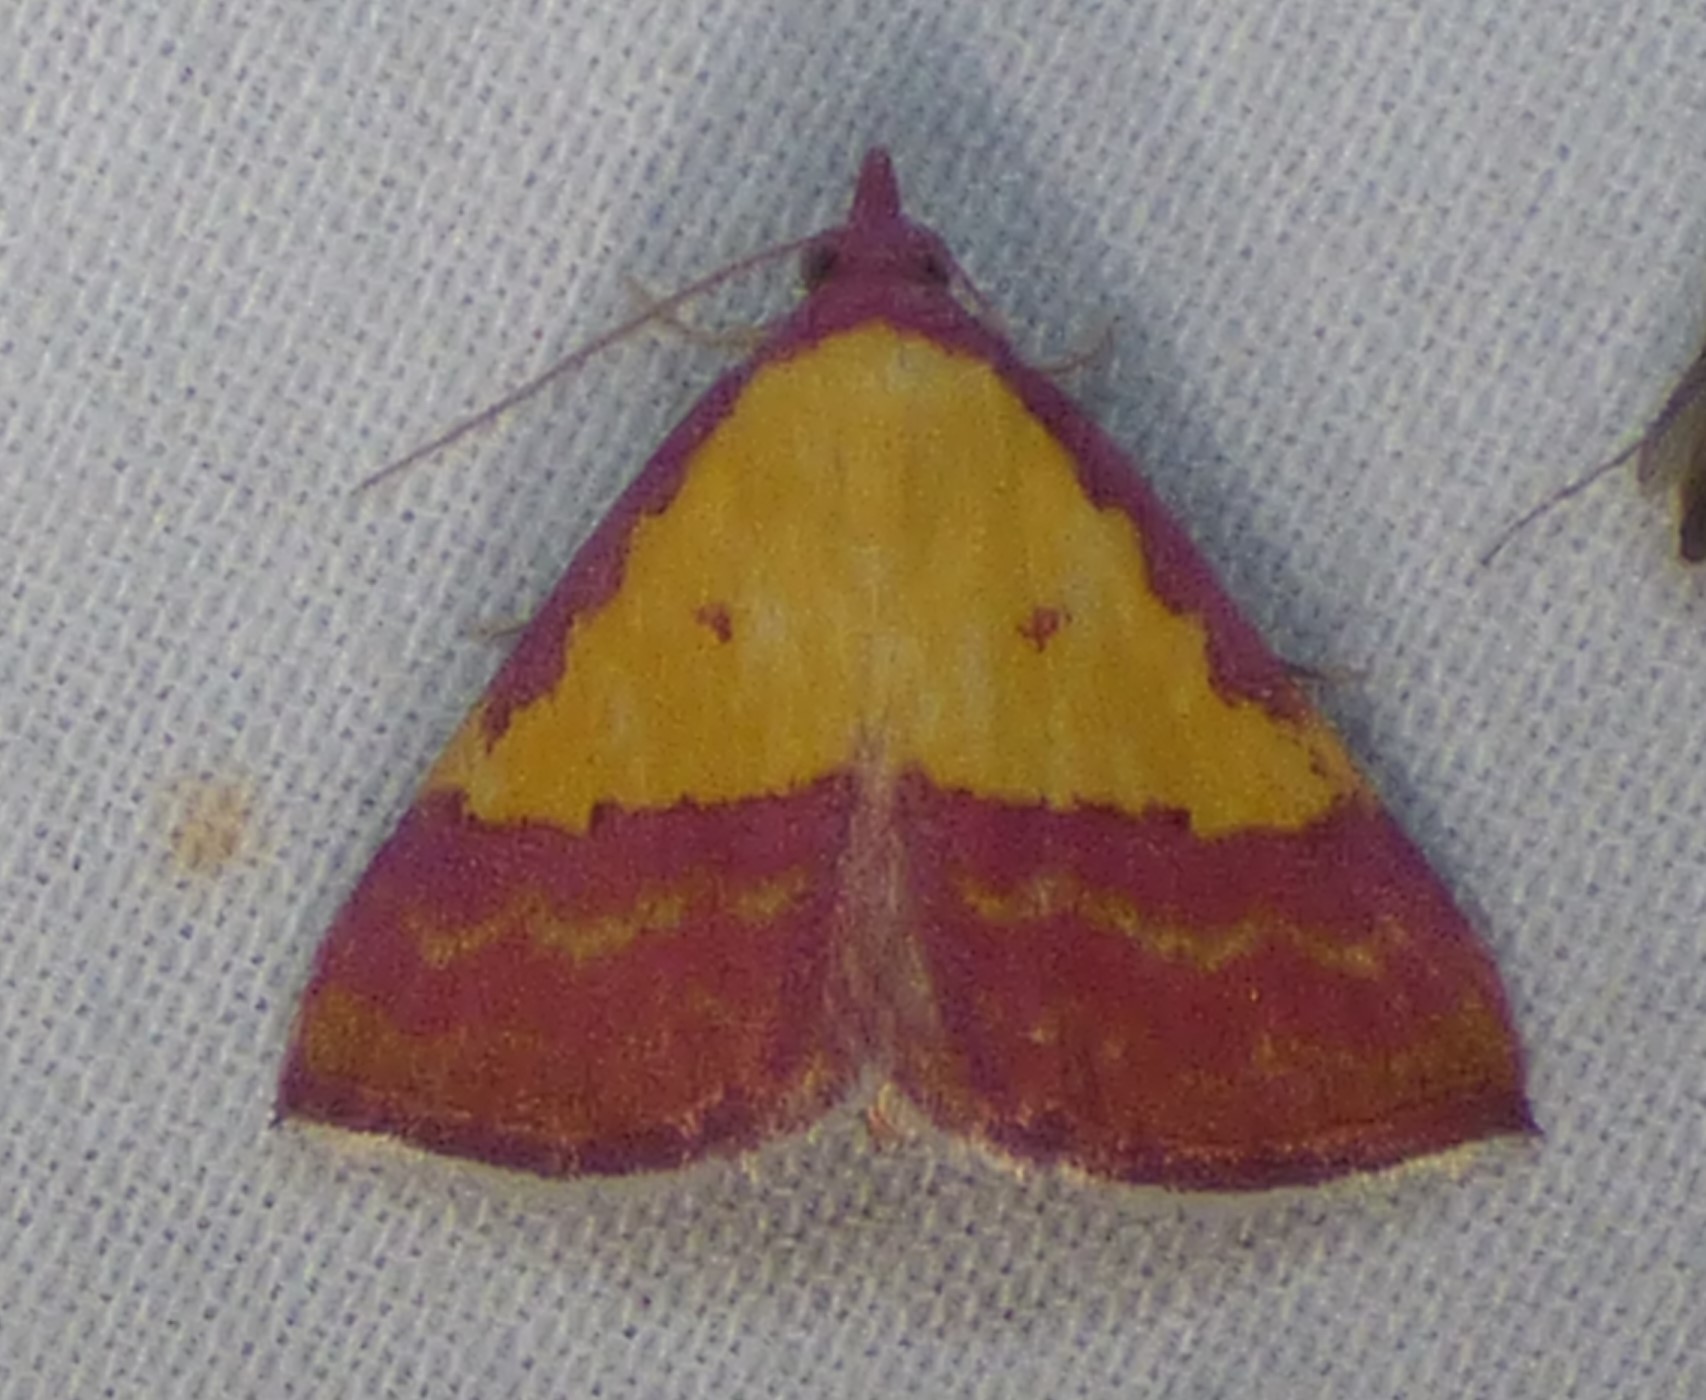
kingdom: Animalia
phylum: Arthropoda
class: Insecta
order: Lepidoptera
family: Erebidae
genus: Phytometra
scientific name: Phytometra rhodarialis
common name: Pink-bordered yellow
